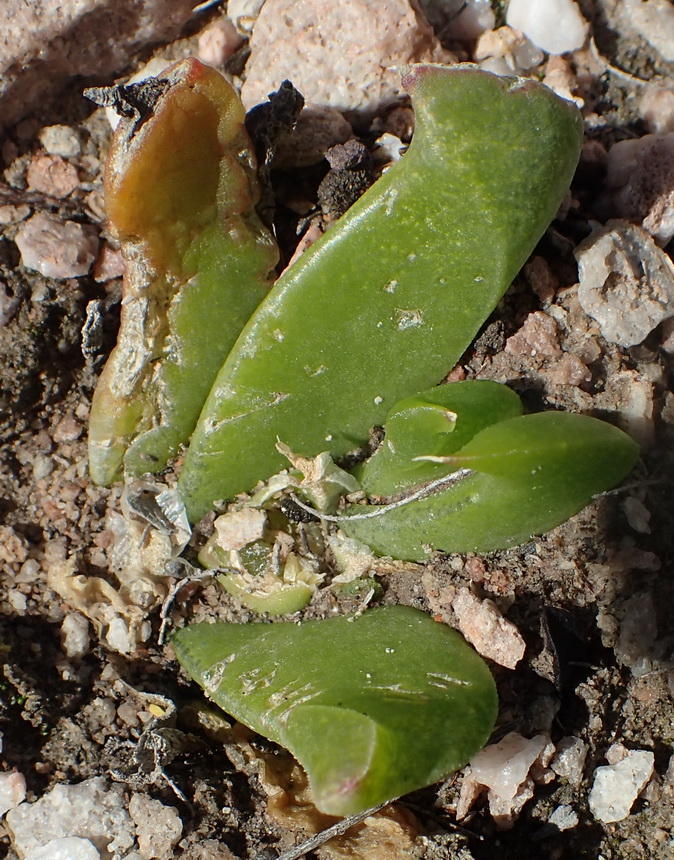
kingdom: Plantae
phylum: Tracheophyta
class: Magnoliopsida
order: Caryophyllales
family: Aizoaceae
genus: Glottiphyllum
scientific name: Glottiphyllum depressum
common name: Fig-marigold
